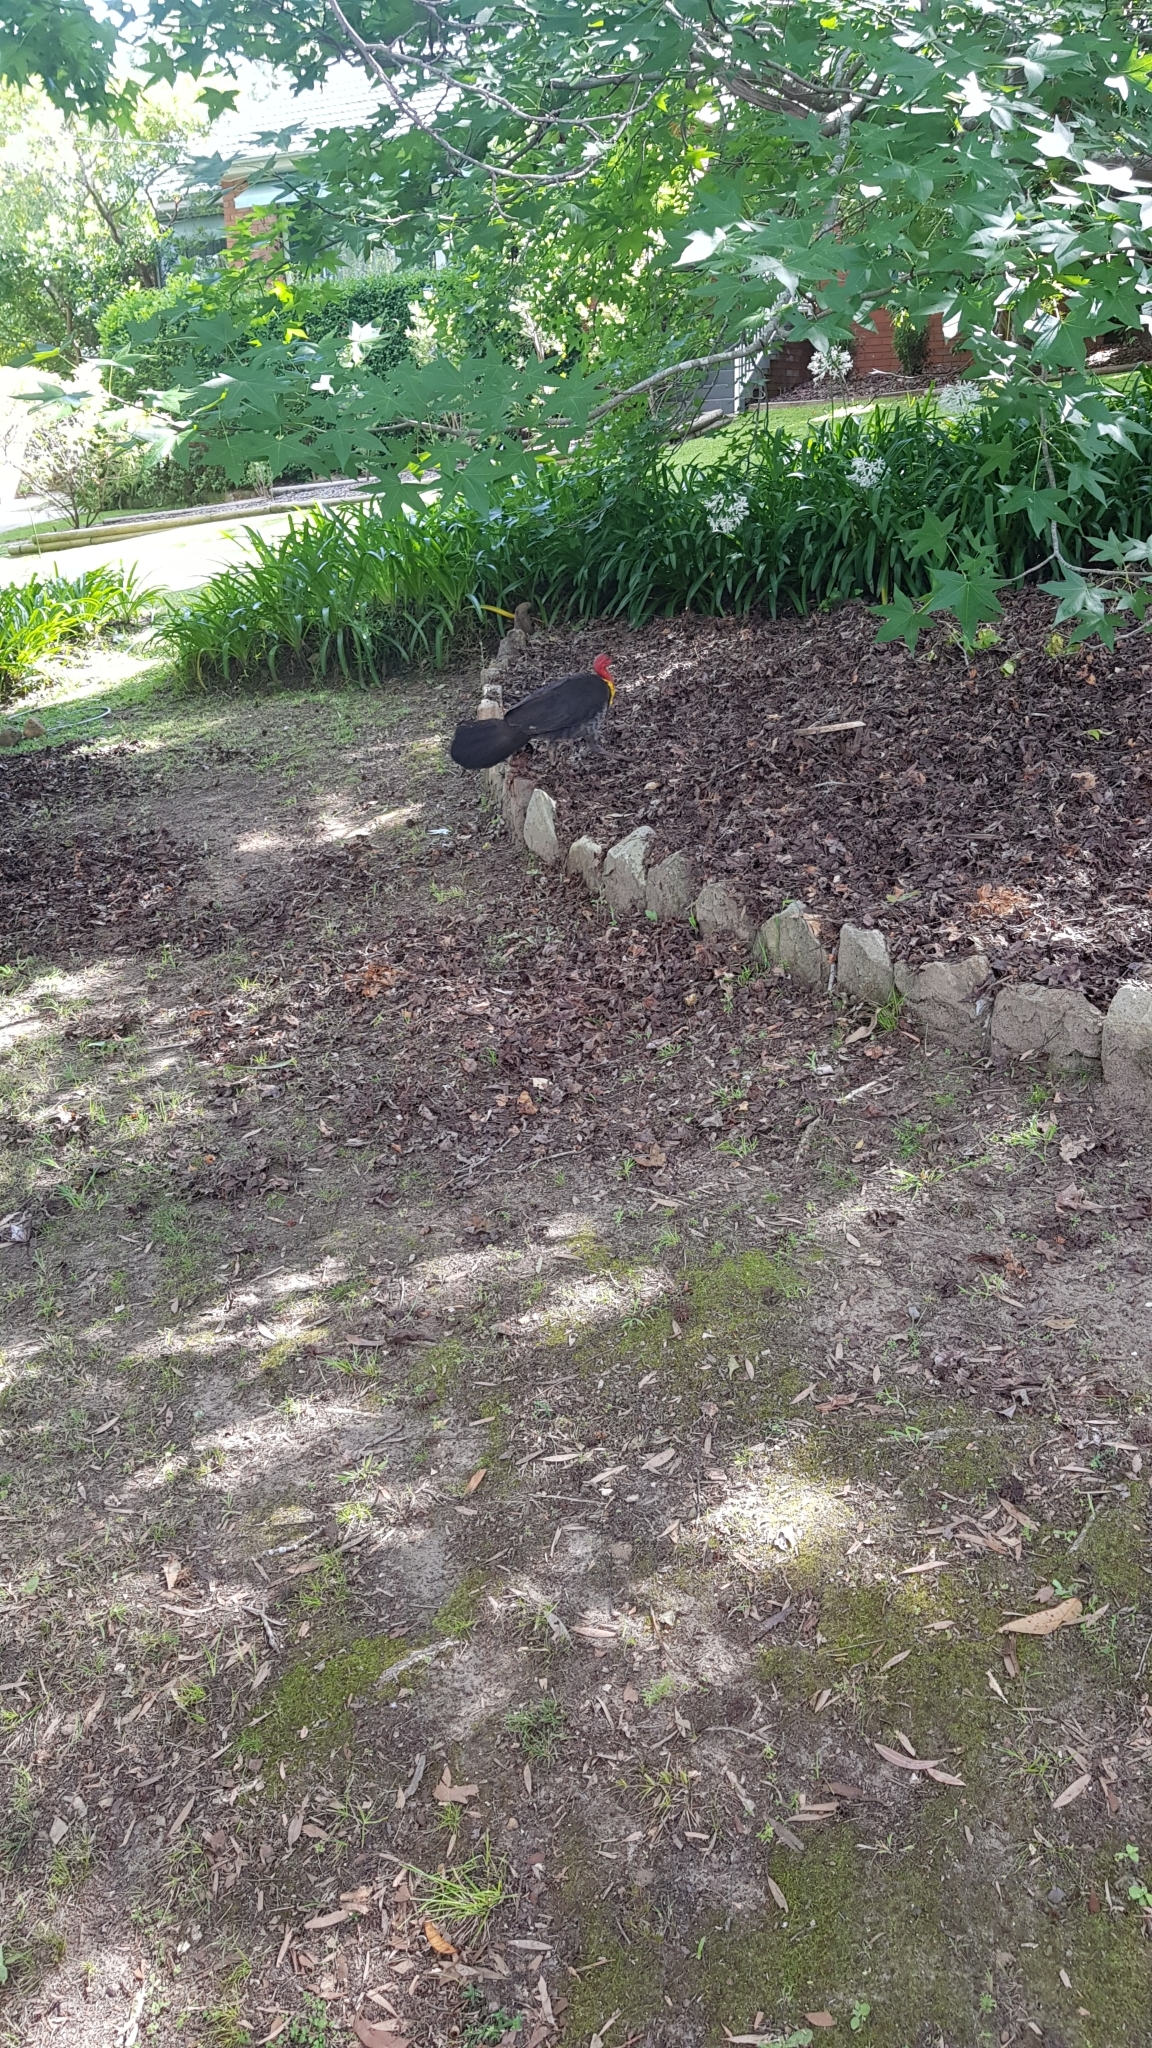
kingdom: Animalia
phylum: Chordata
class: Aves
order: Galliformes
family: Megapodiidae
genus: Alectura
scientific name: Alectura lathami
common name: Australian brushturkey
